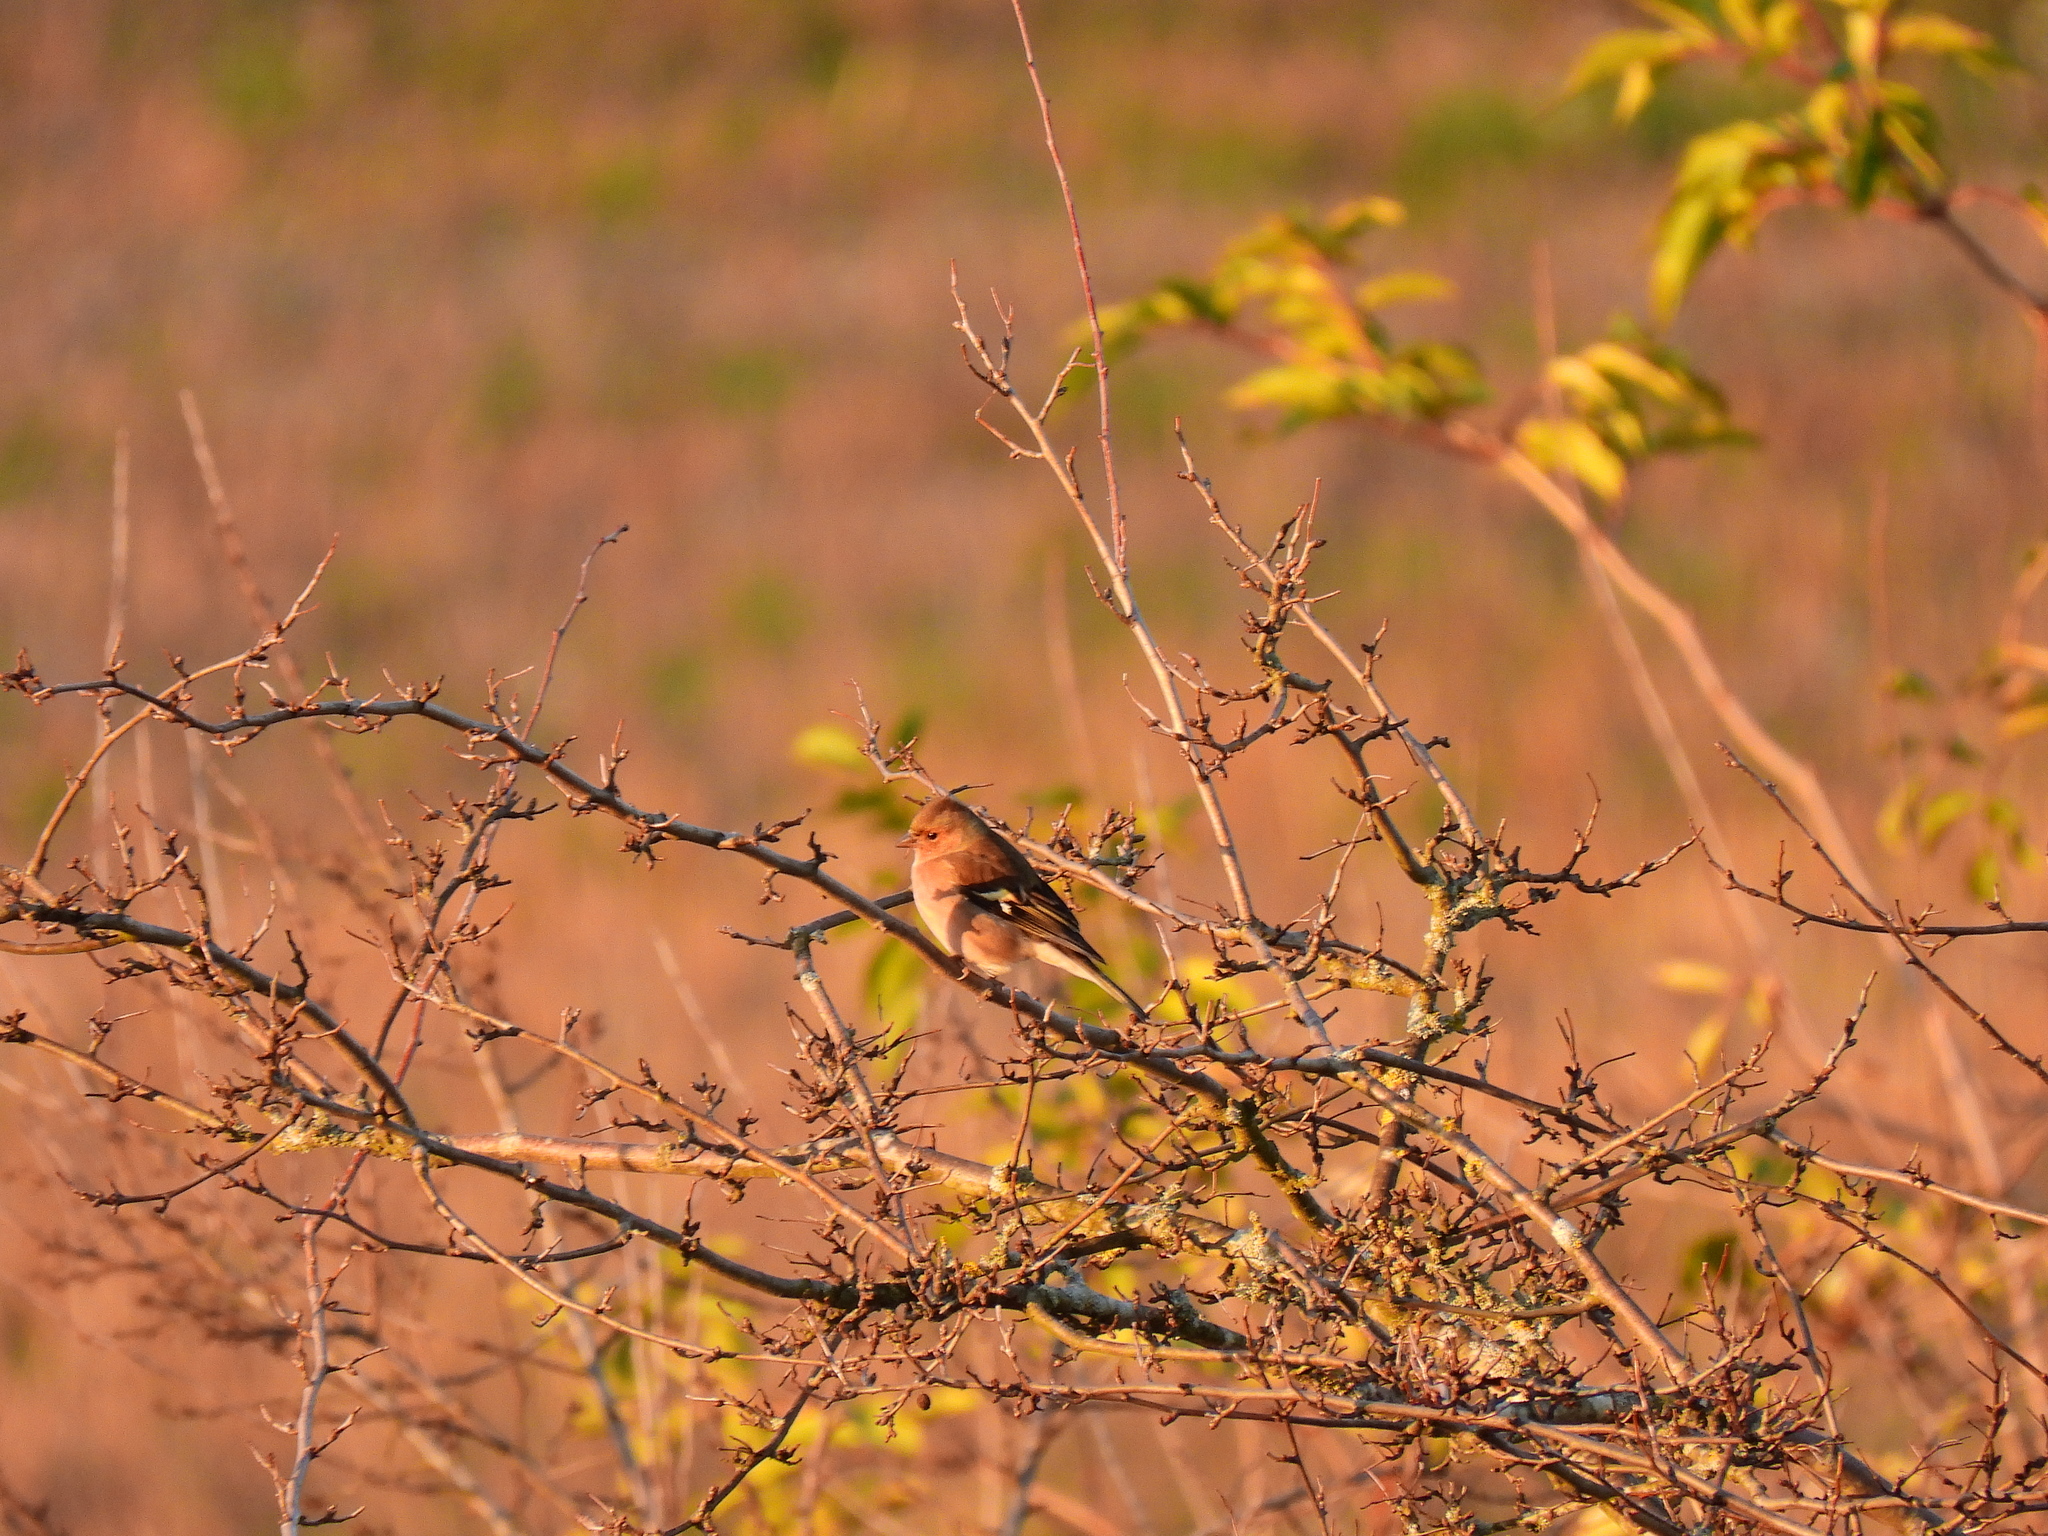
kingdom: Animalia
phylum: Chordata
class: Aves
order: Passeriformes
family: Fringillidae
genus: Fringilla
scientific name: Fringilla coelebs
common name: Common chaffinch
